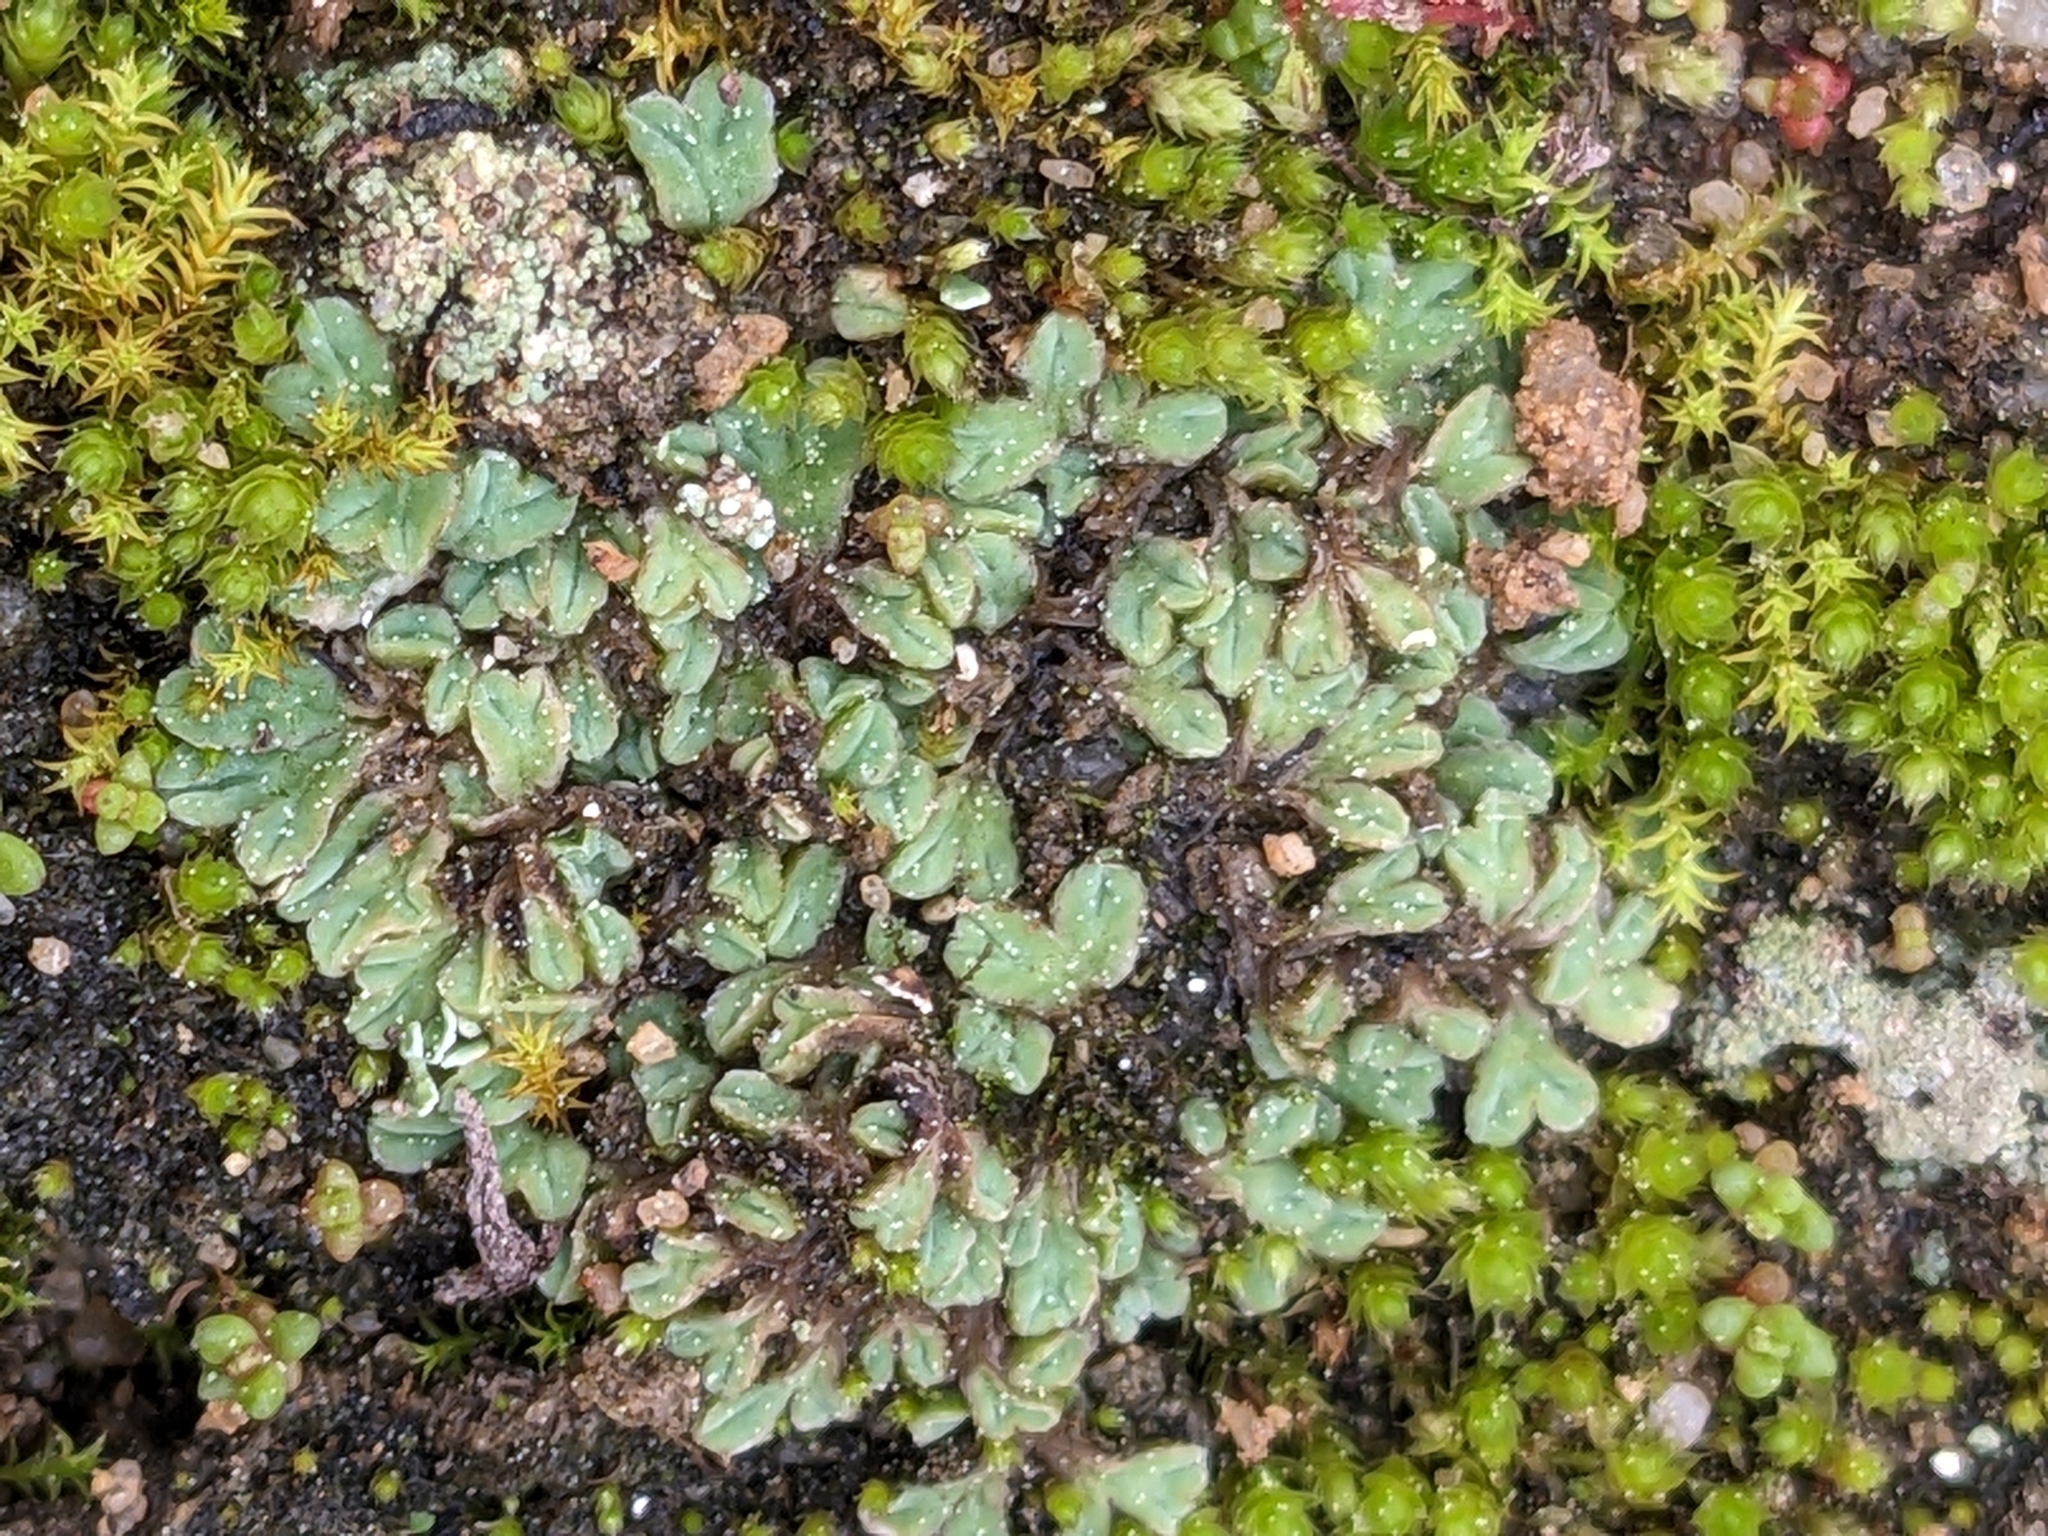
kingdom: Plantae
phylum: Marchantiophyta
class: Marchantiopsida
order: Marchantiales
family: Ricciaceae
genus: Riccia
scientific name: Riccia lamellosa
